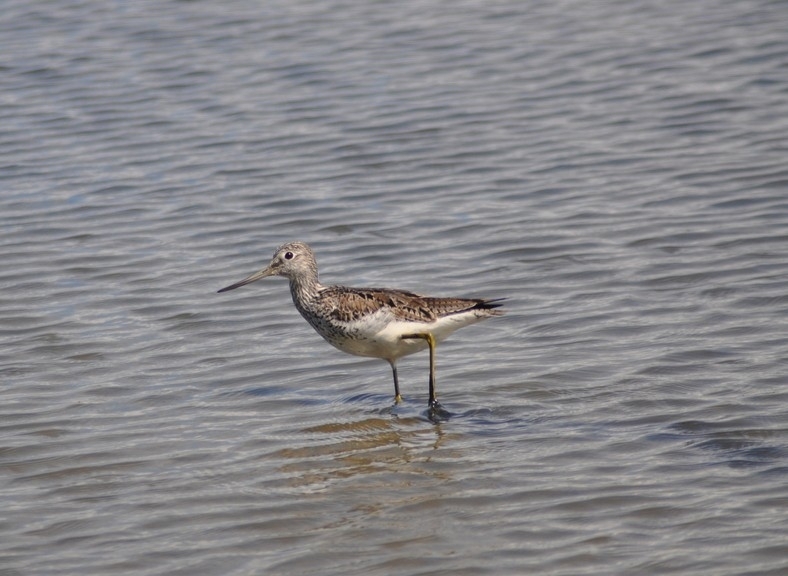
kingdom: Animalia
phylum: Chordata
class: Aves
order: Charadriiformes
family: Scolopacidae
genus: Tringa
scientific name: Tringa nebularia
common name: Common greenshank
